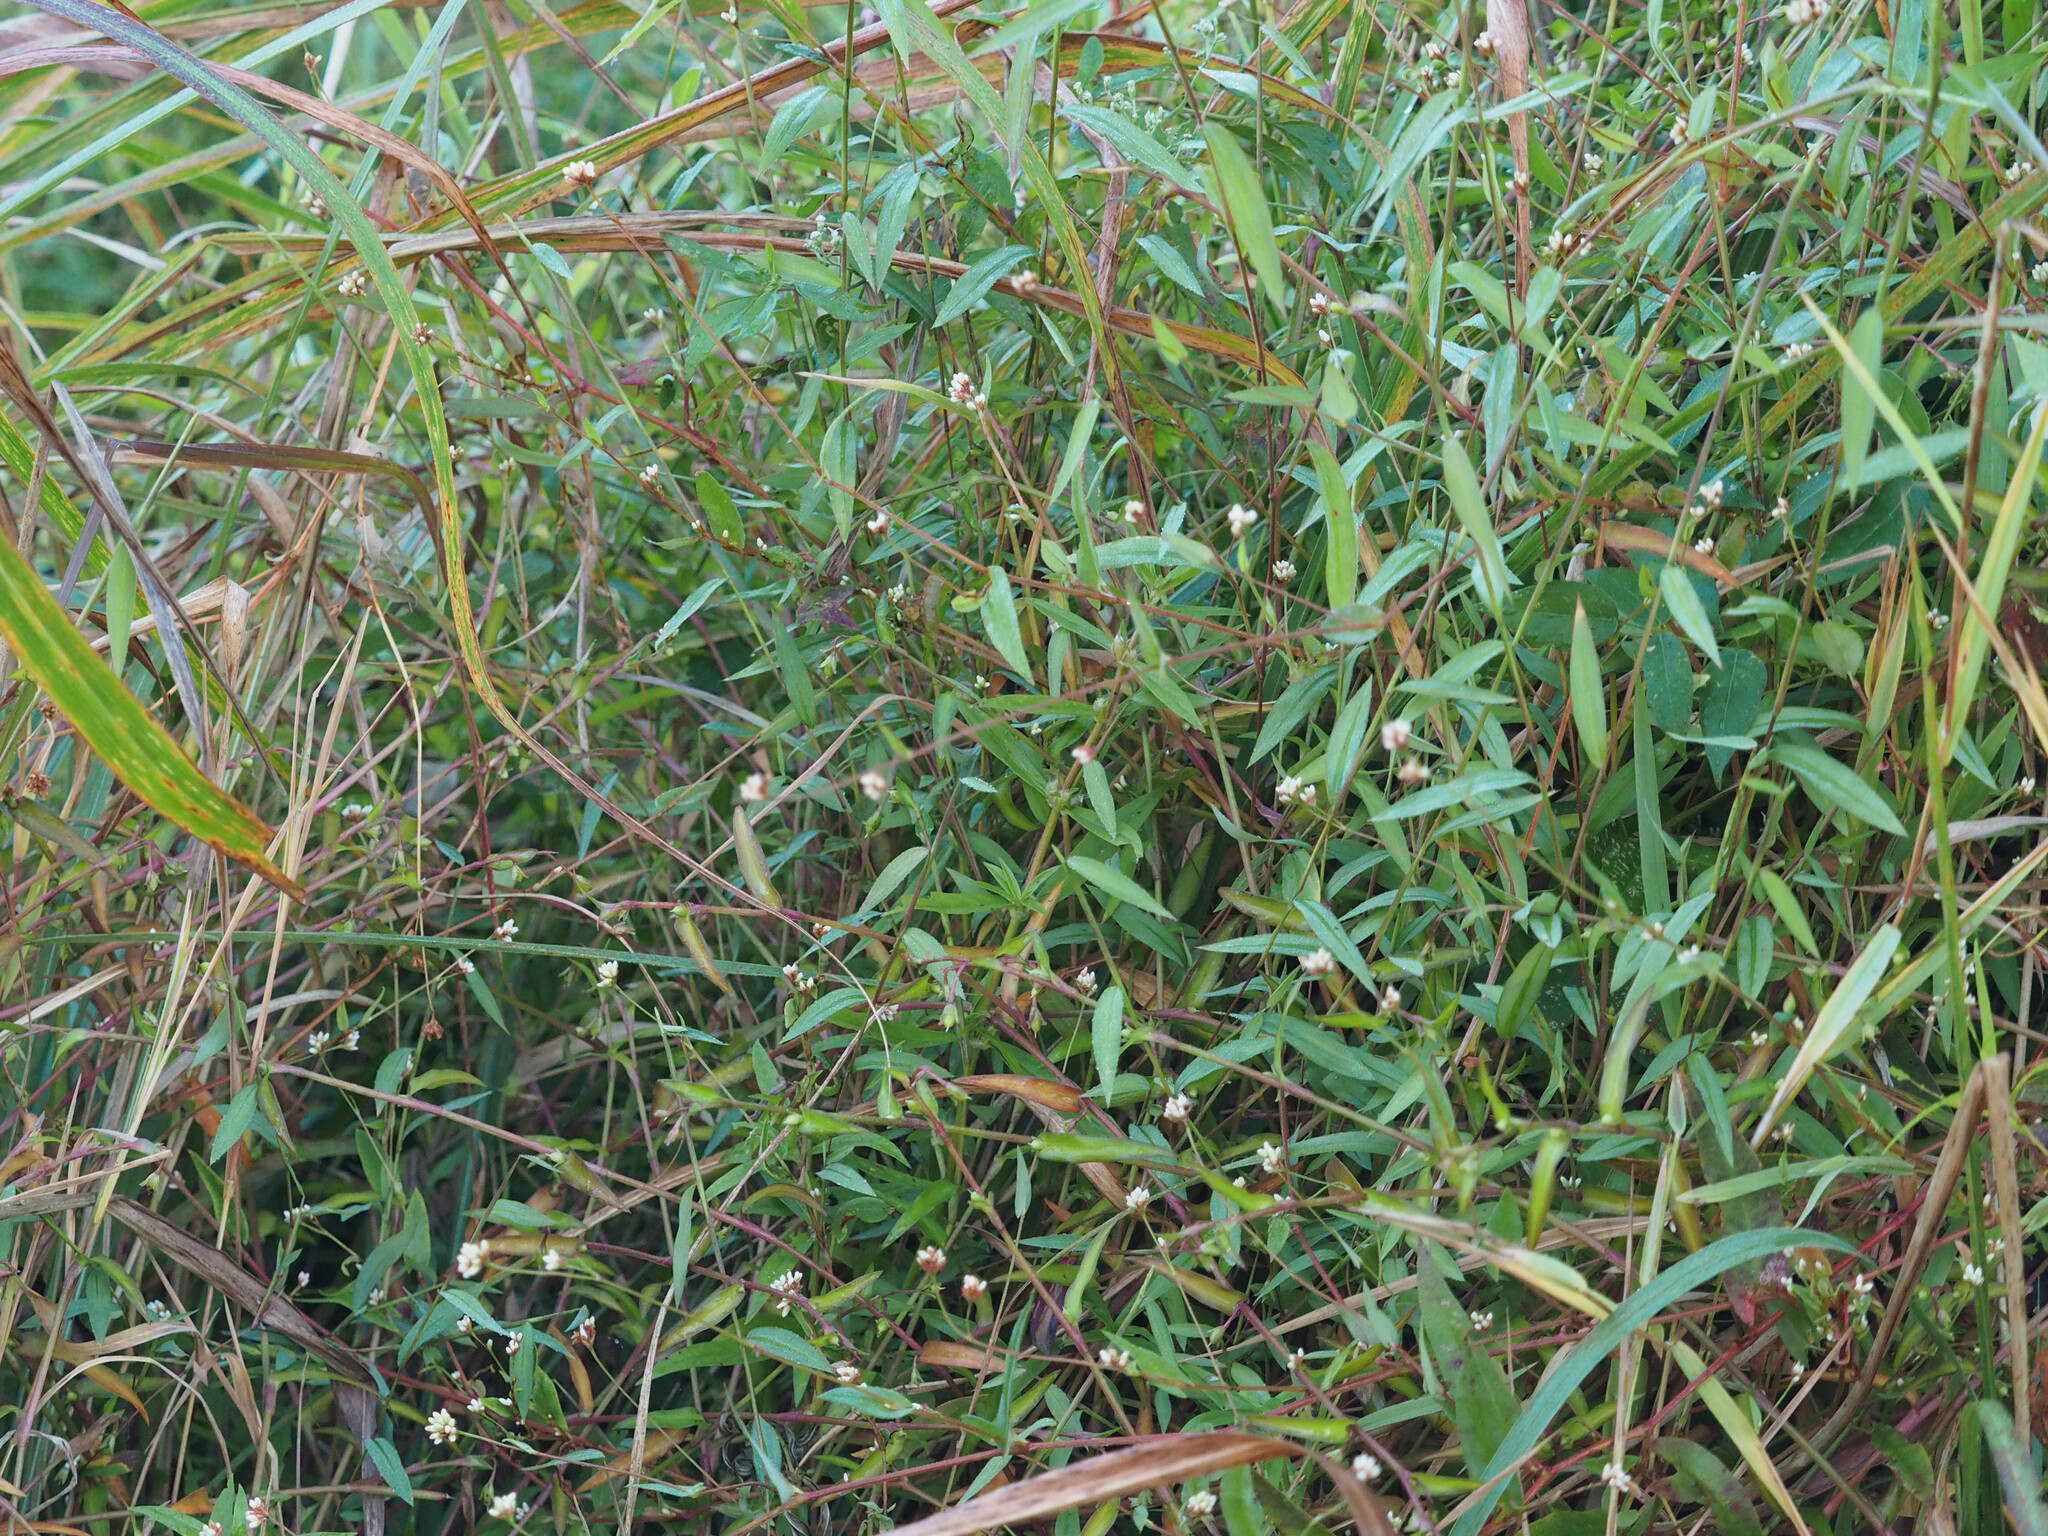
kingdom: Plantae
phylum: Tracheophyta
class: Magnoliopsida
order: Caryophyllales
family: Polygonaceae
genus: Persicaria
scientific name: Persicaria sagittata
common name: American tearthumb
